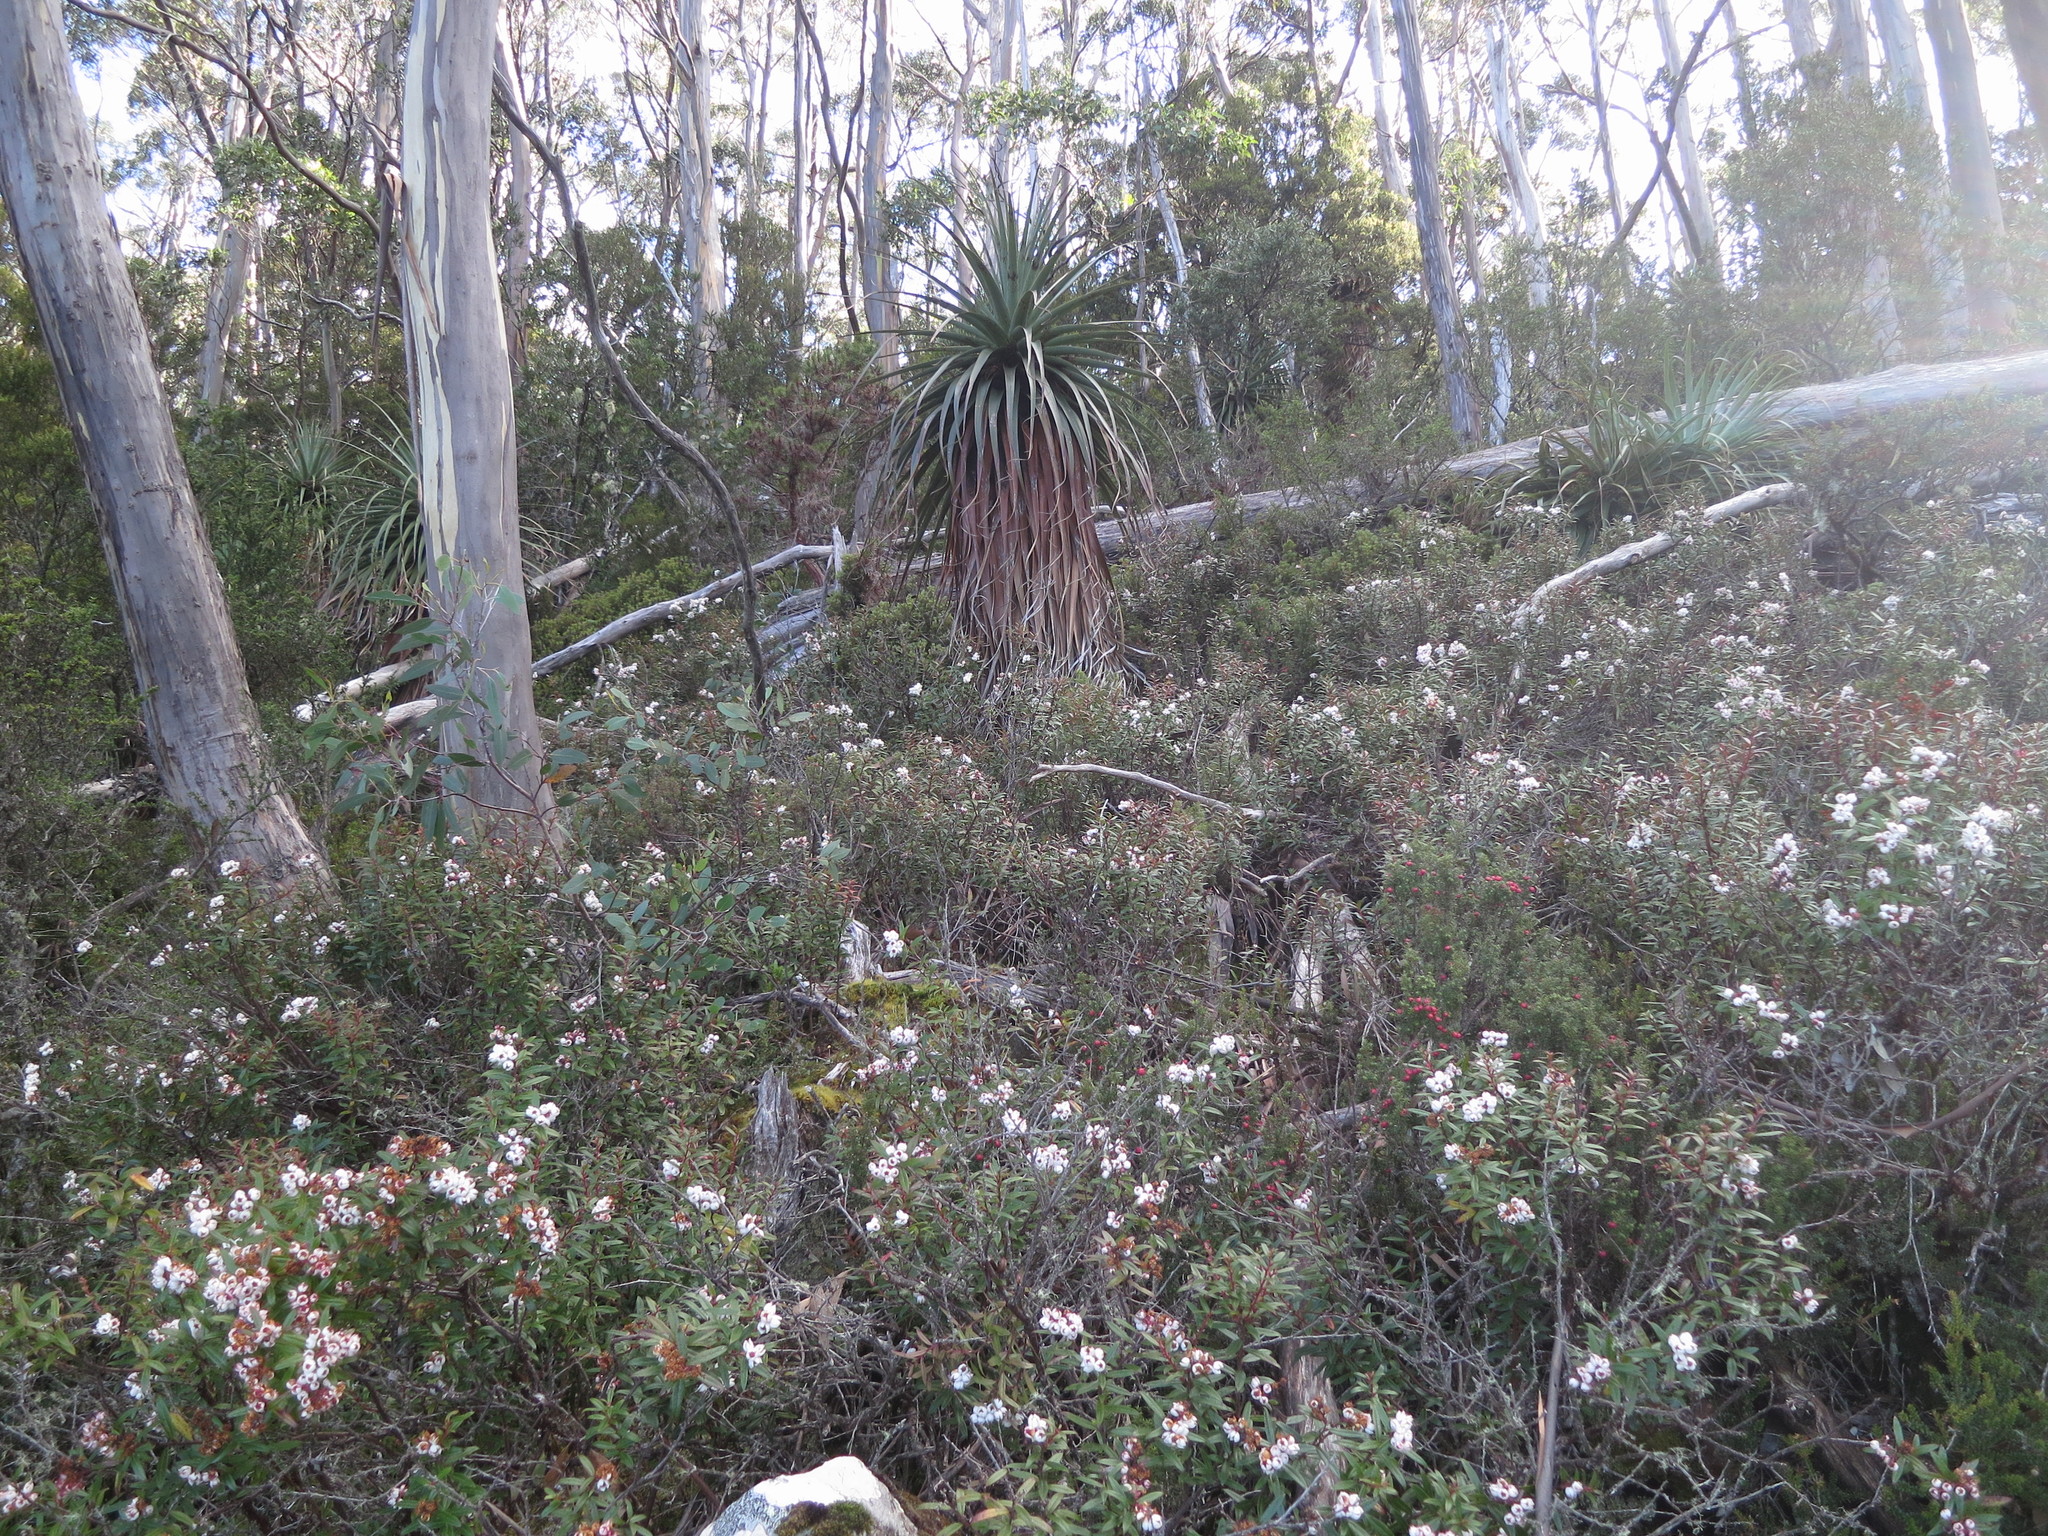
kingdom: Plantae
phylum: Tracheophyta
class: Magnoliopsida
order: Ericales
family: Ericaceae
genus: Gaultheria
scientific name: Gaultheria hispida
